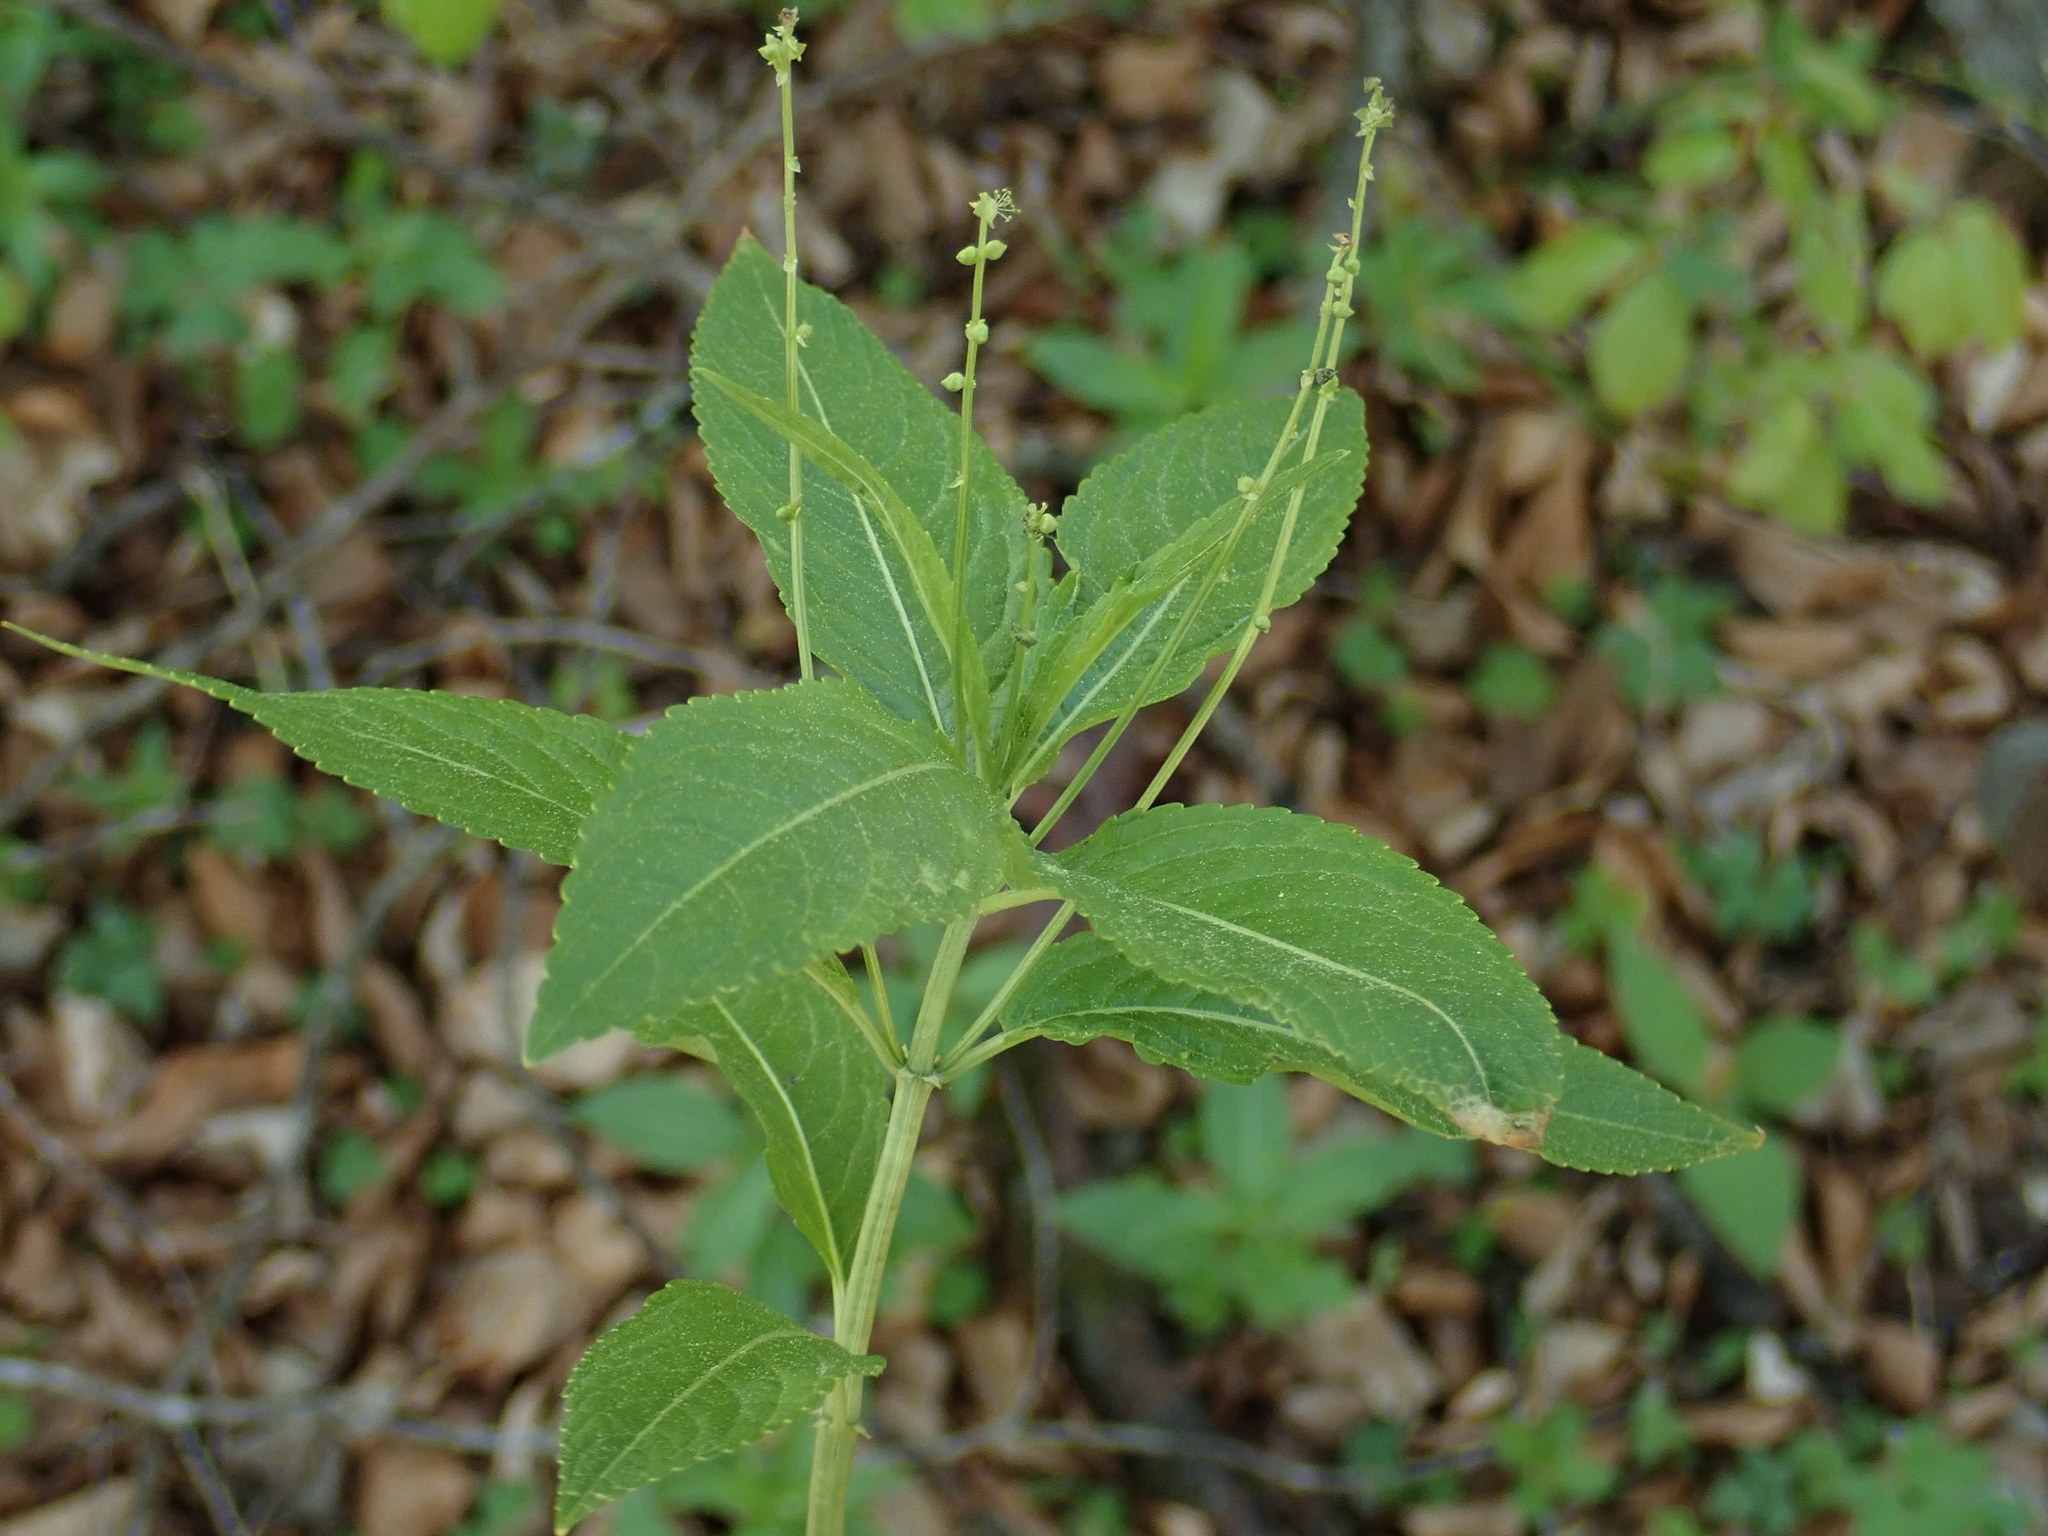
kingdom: Plantae
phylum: Tracheophyta
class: Magnoliopsida
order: Malpighiales
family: Euphorbiaceae
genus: Mercurialis
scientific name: Mercurialis perennis
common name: Dog mercury
